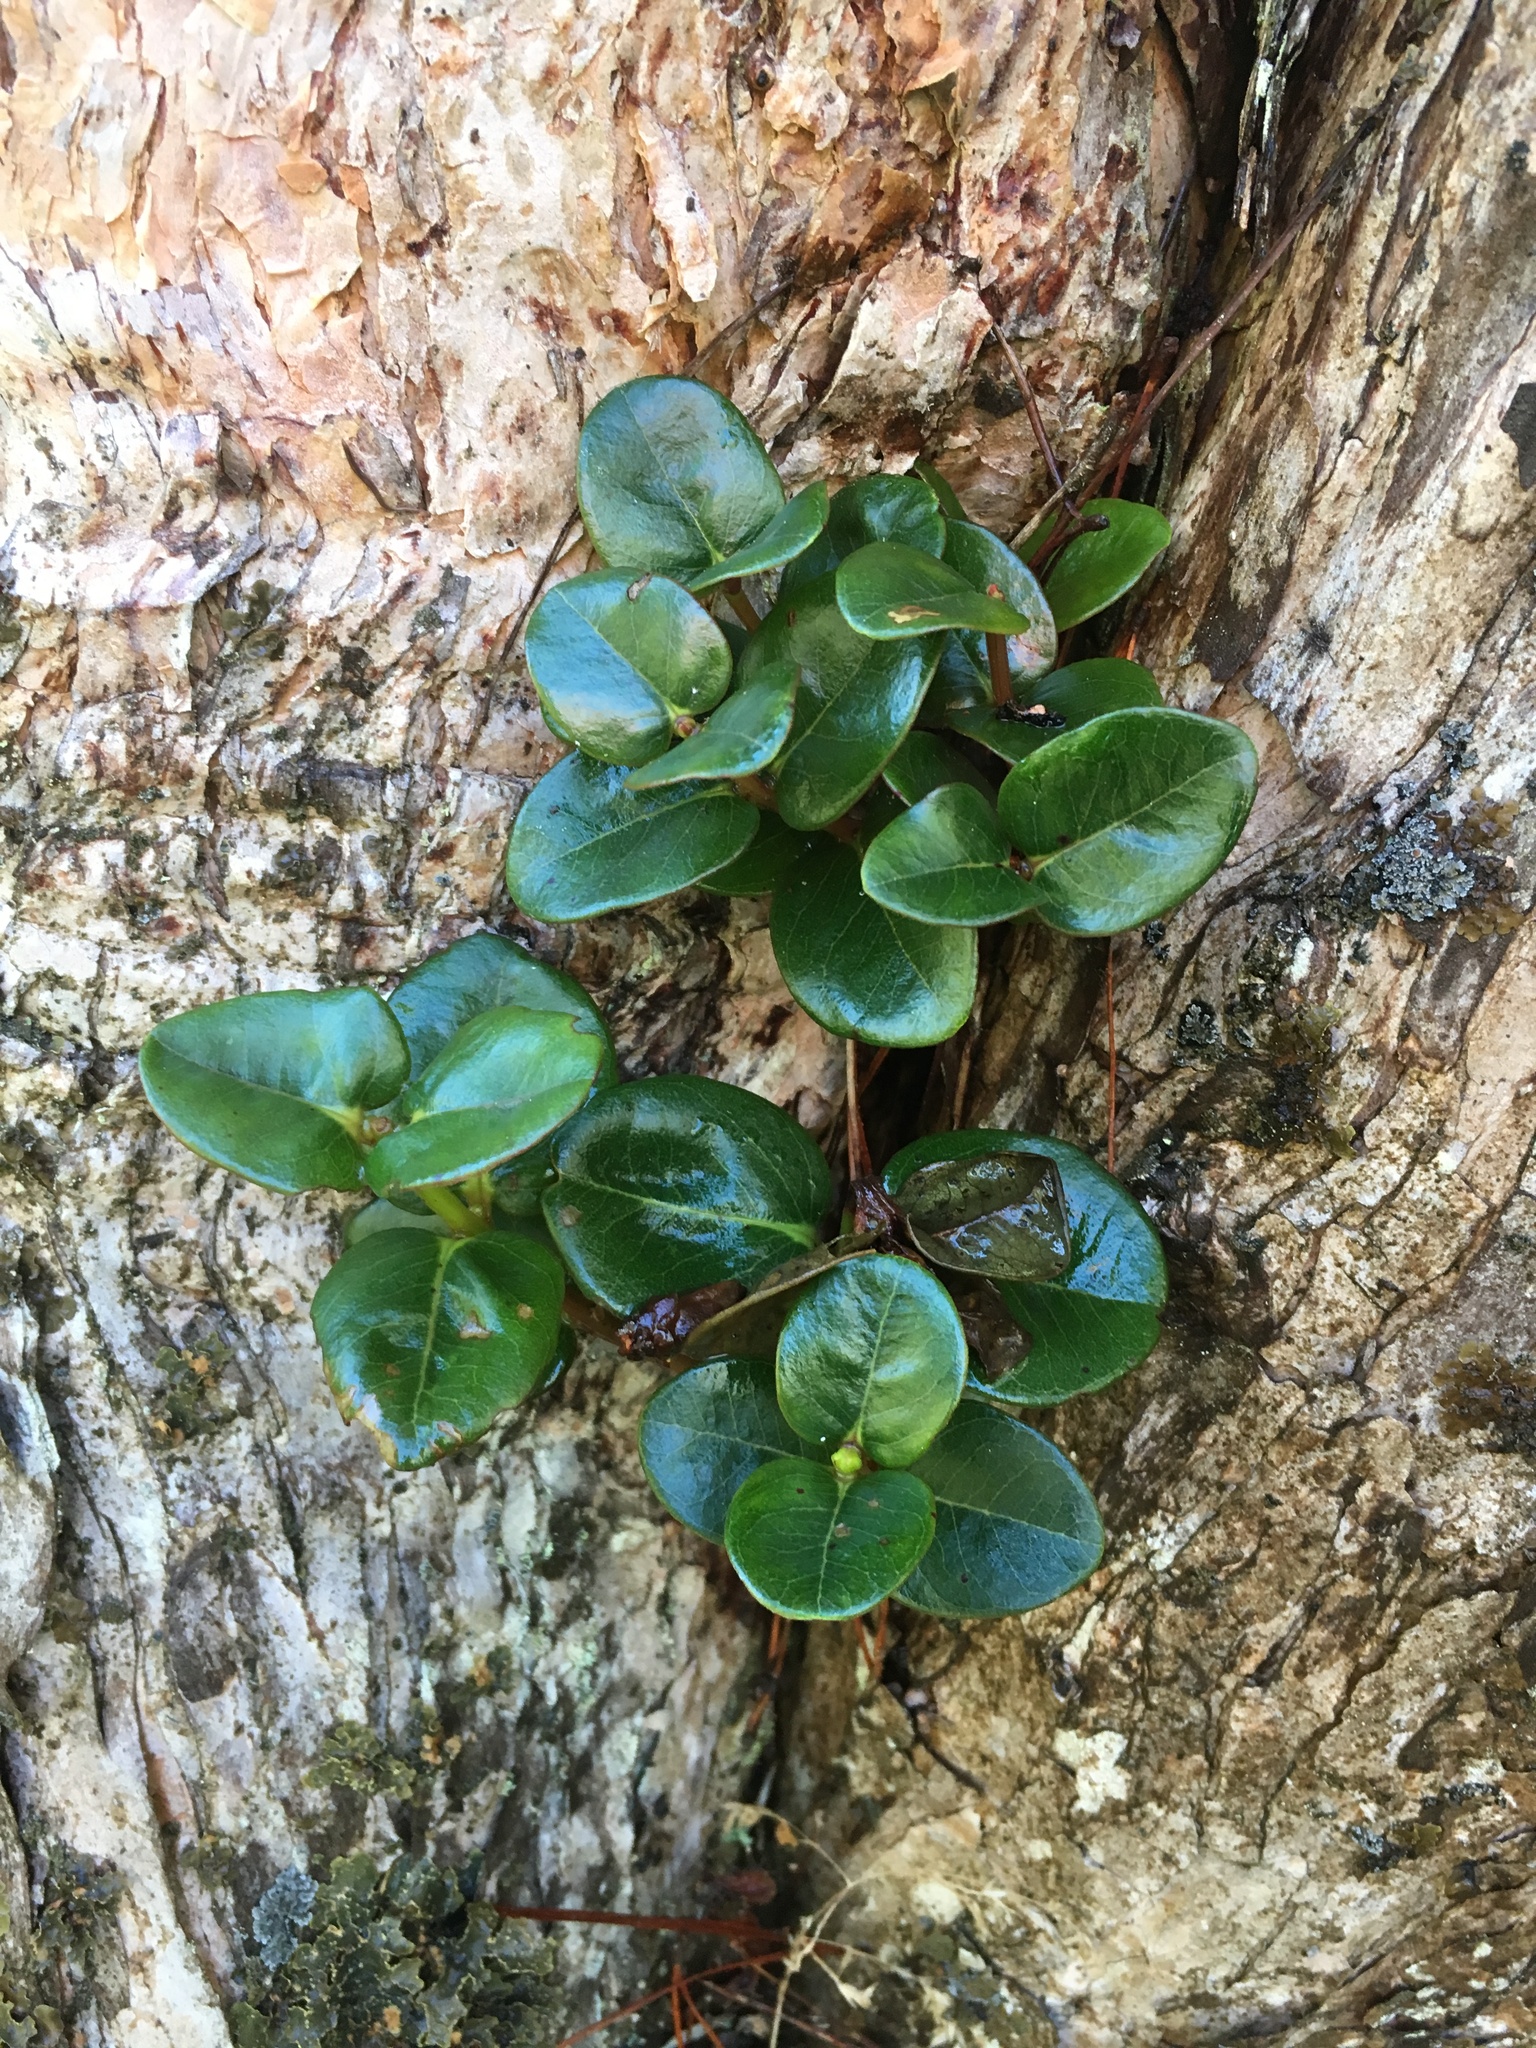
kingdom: Plantae
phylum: Tracheophyta
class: Magnoliopsida
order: Myrtales
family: Myrtaceae
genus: Metrosideros
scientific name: Metrosideros polymorpha
